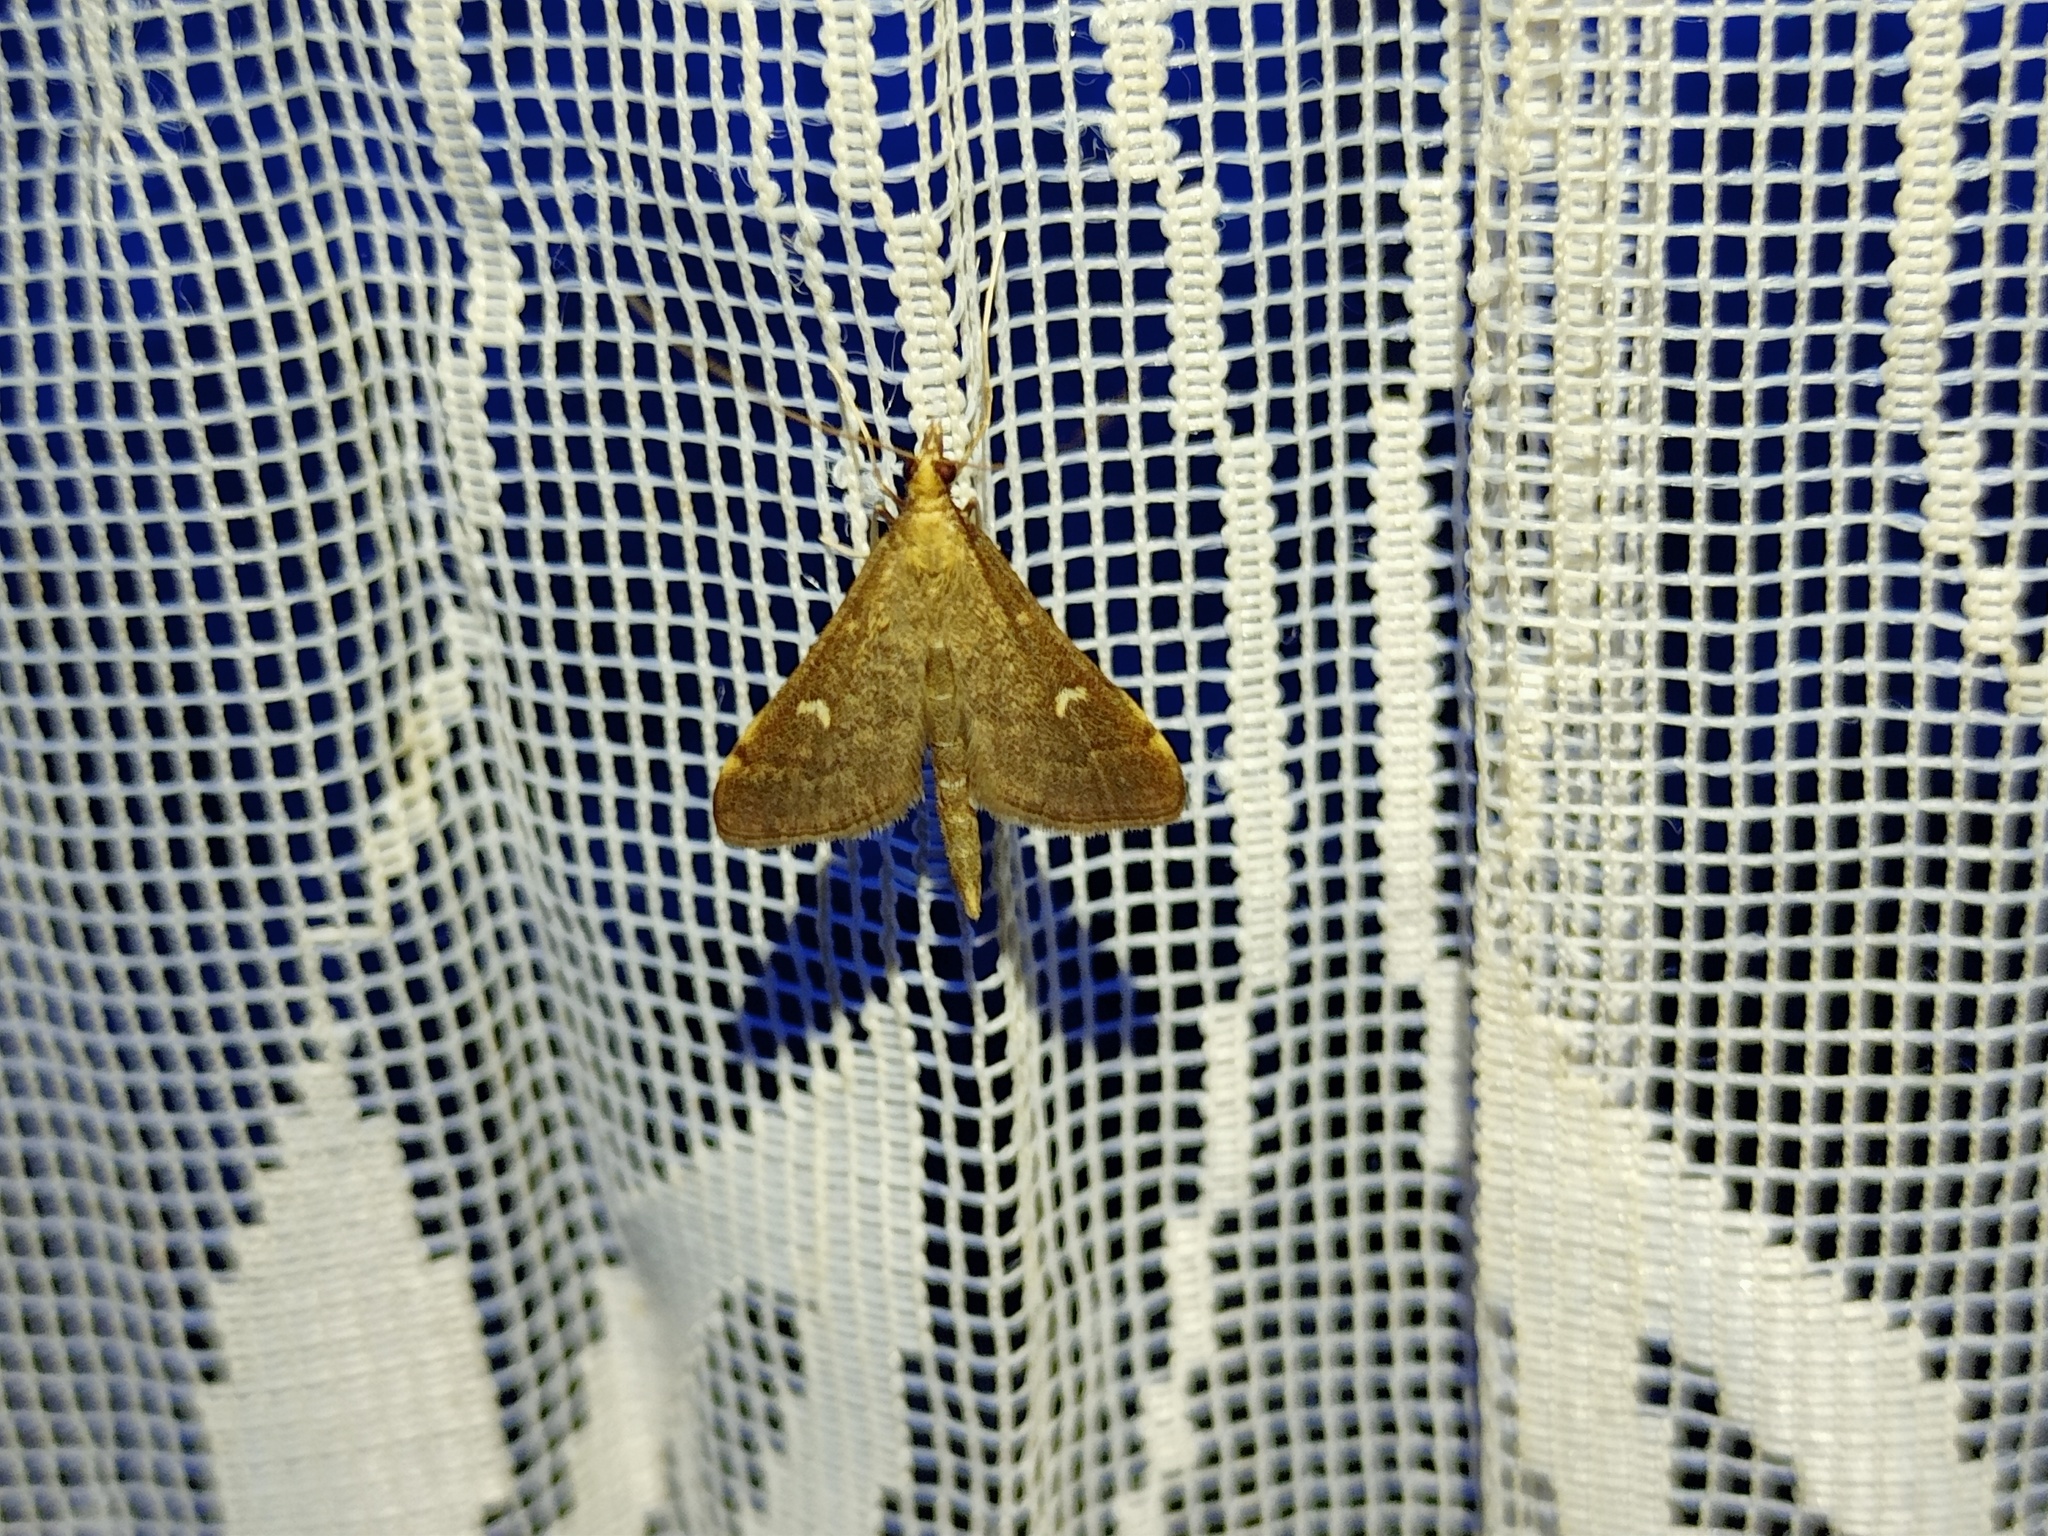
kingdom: Animalia
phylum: Arthropoda
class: Insecta
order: Lepidoptera
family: Crambidae
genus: Stenia
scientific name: Stenia Dolicharthria punctalis
